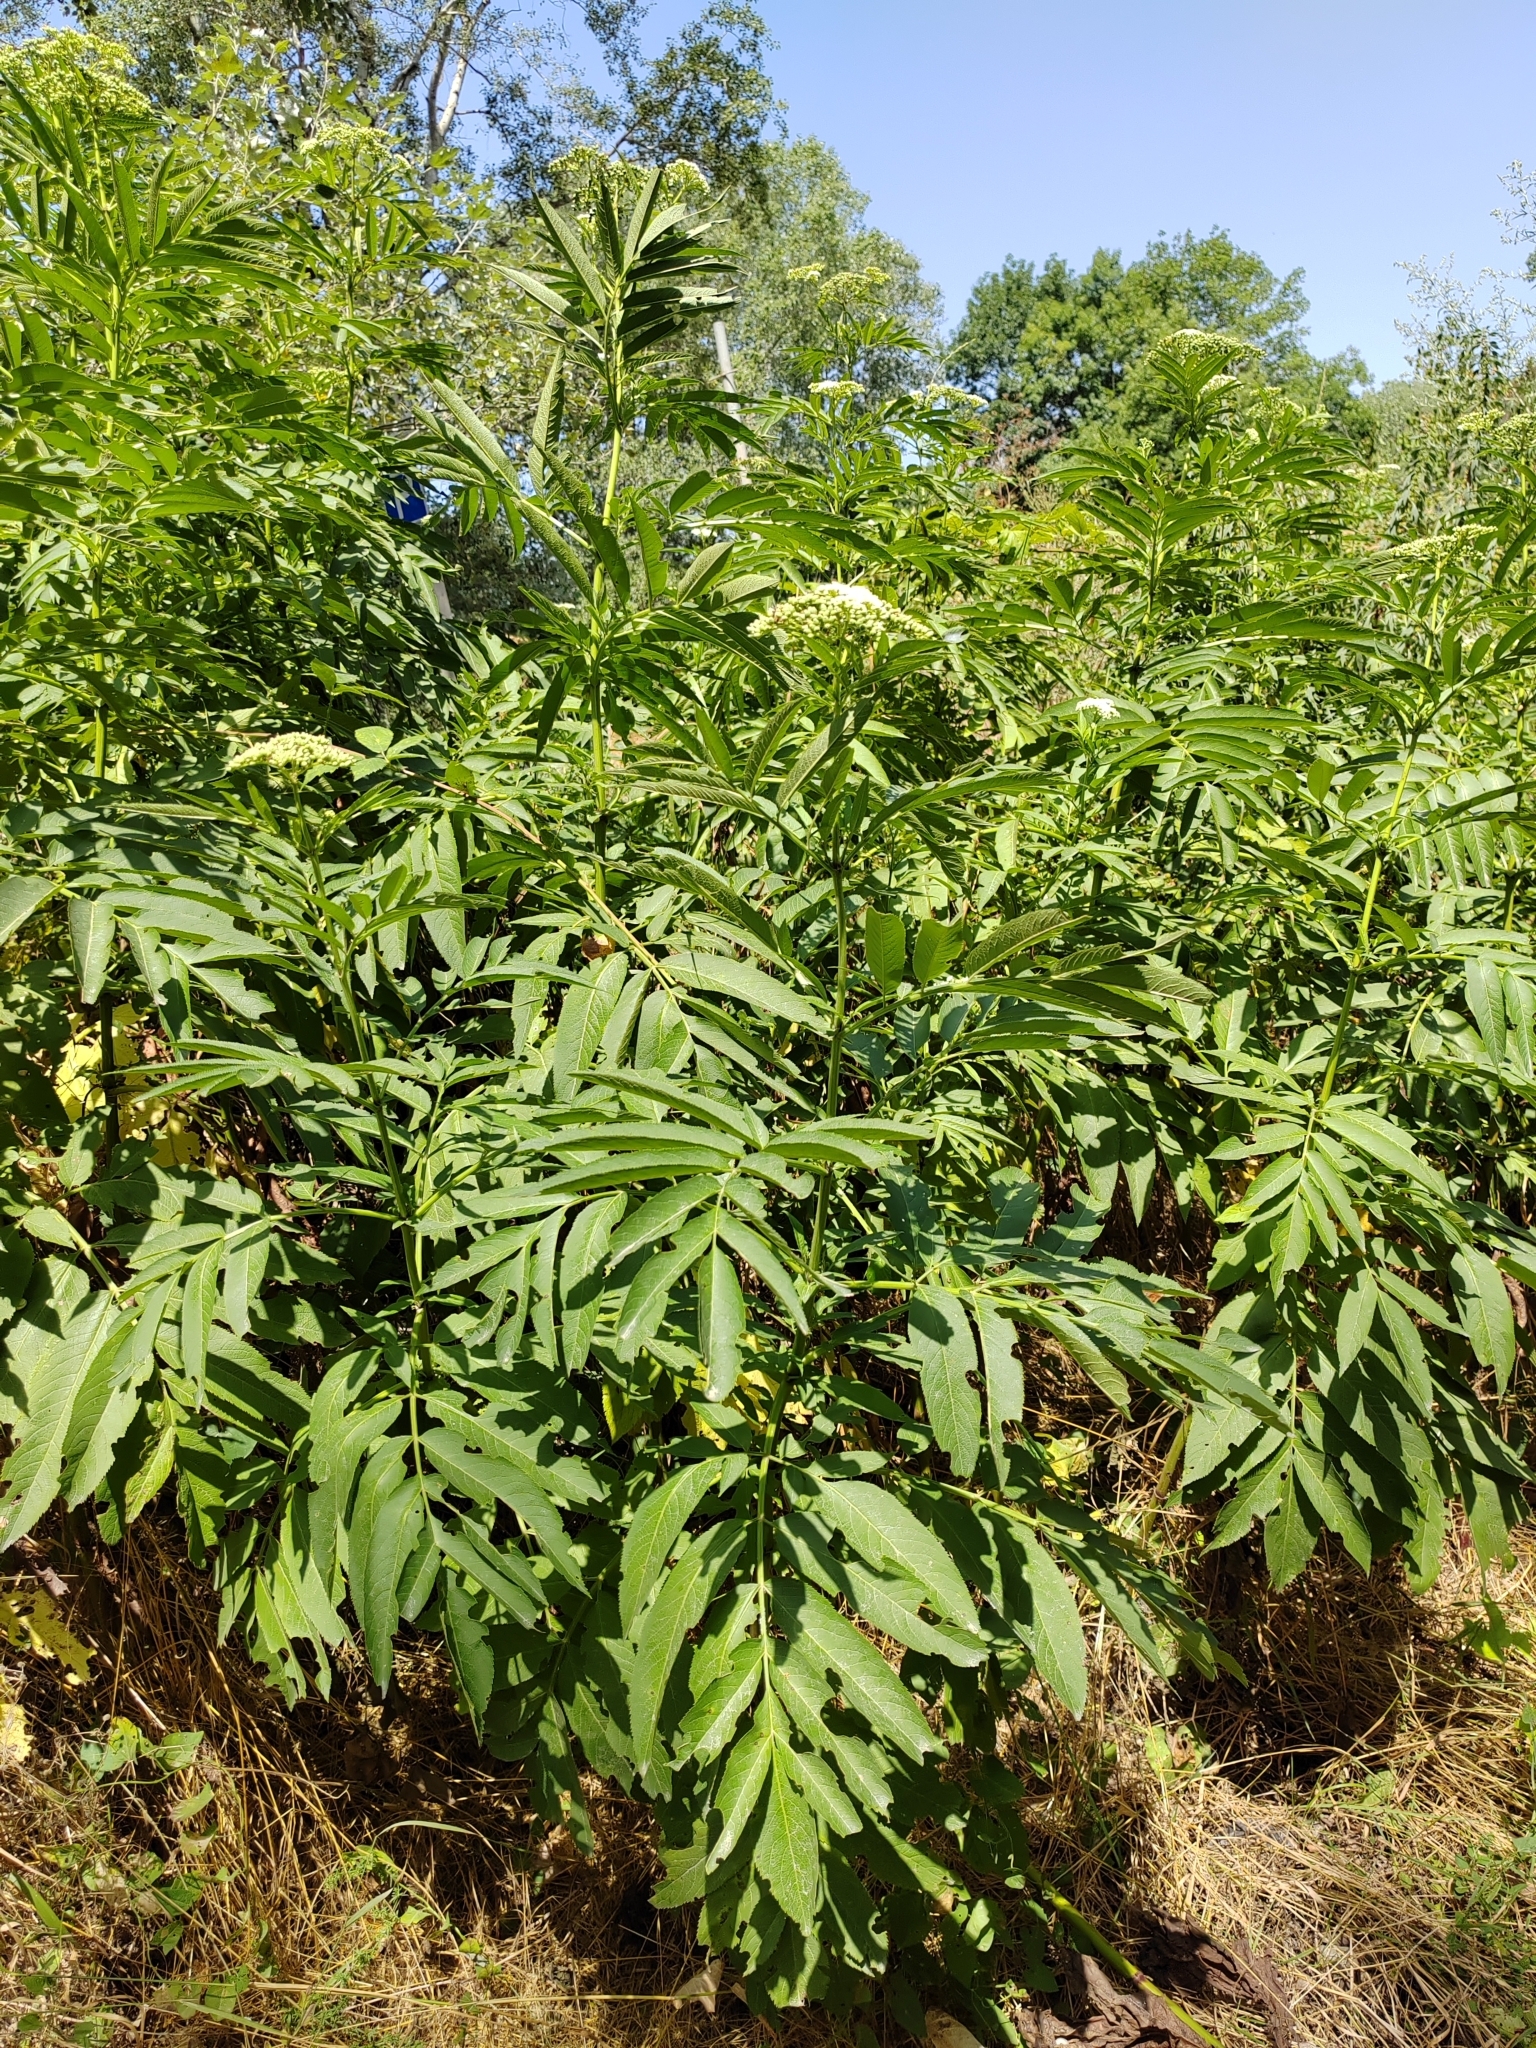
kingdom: Plantae
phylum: Tracheophyta
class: Magnoliopsida
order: Dipsacales
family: Viburnaceae
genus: Sambucus
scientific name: Sambucus ebulus
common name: Dwarf elder
